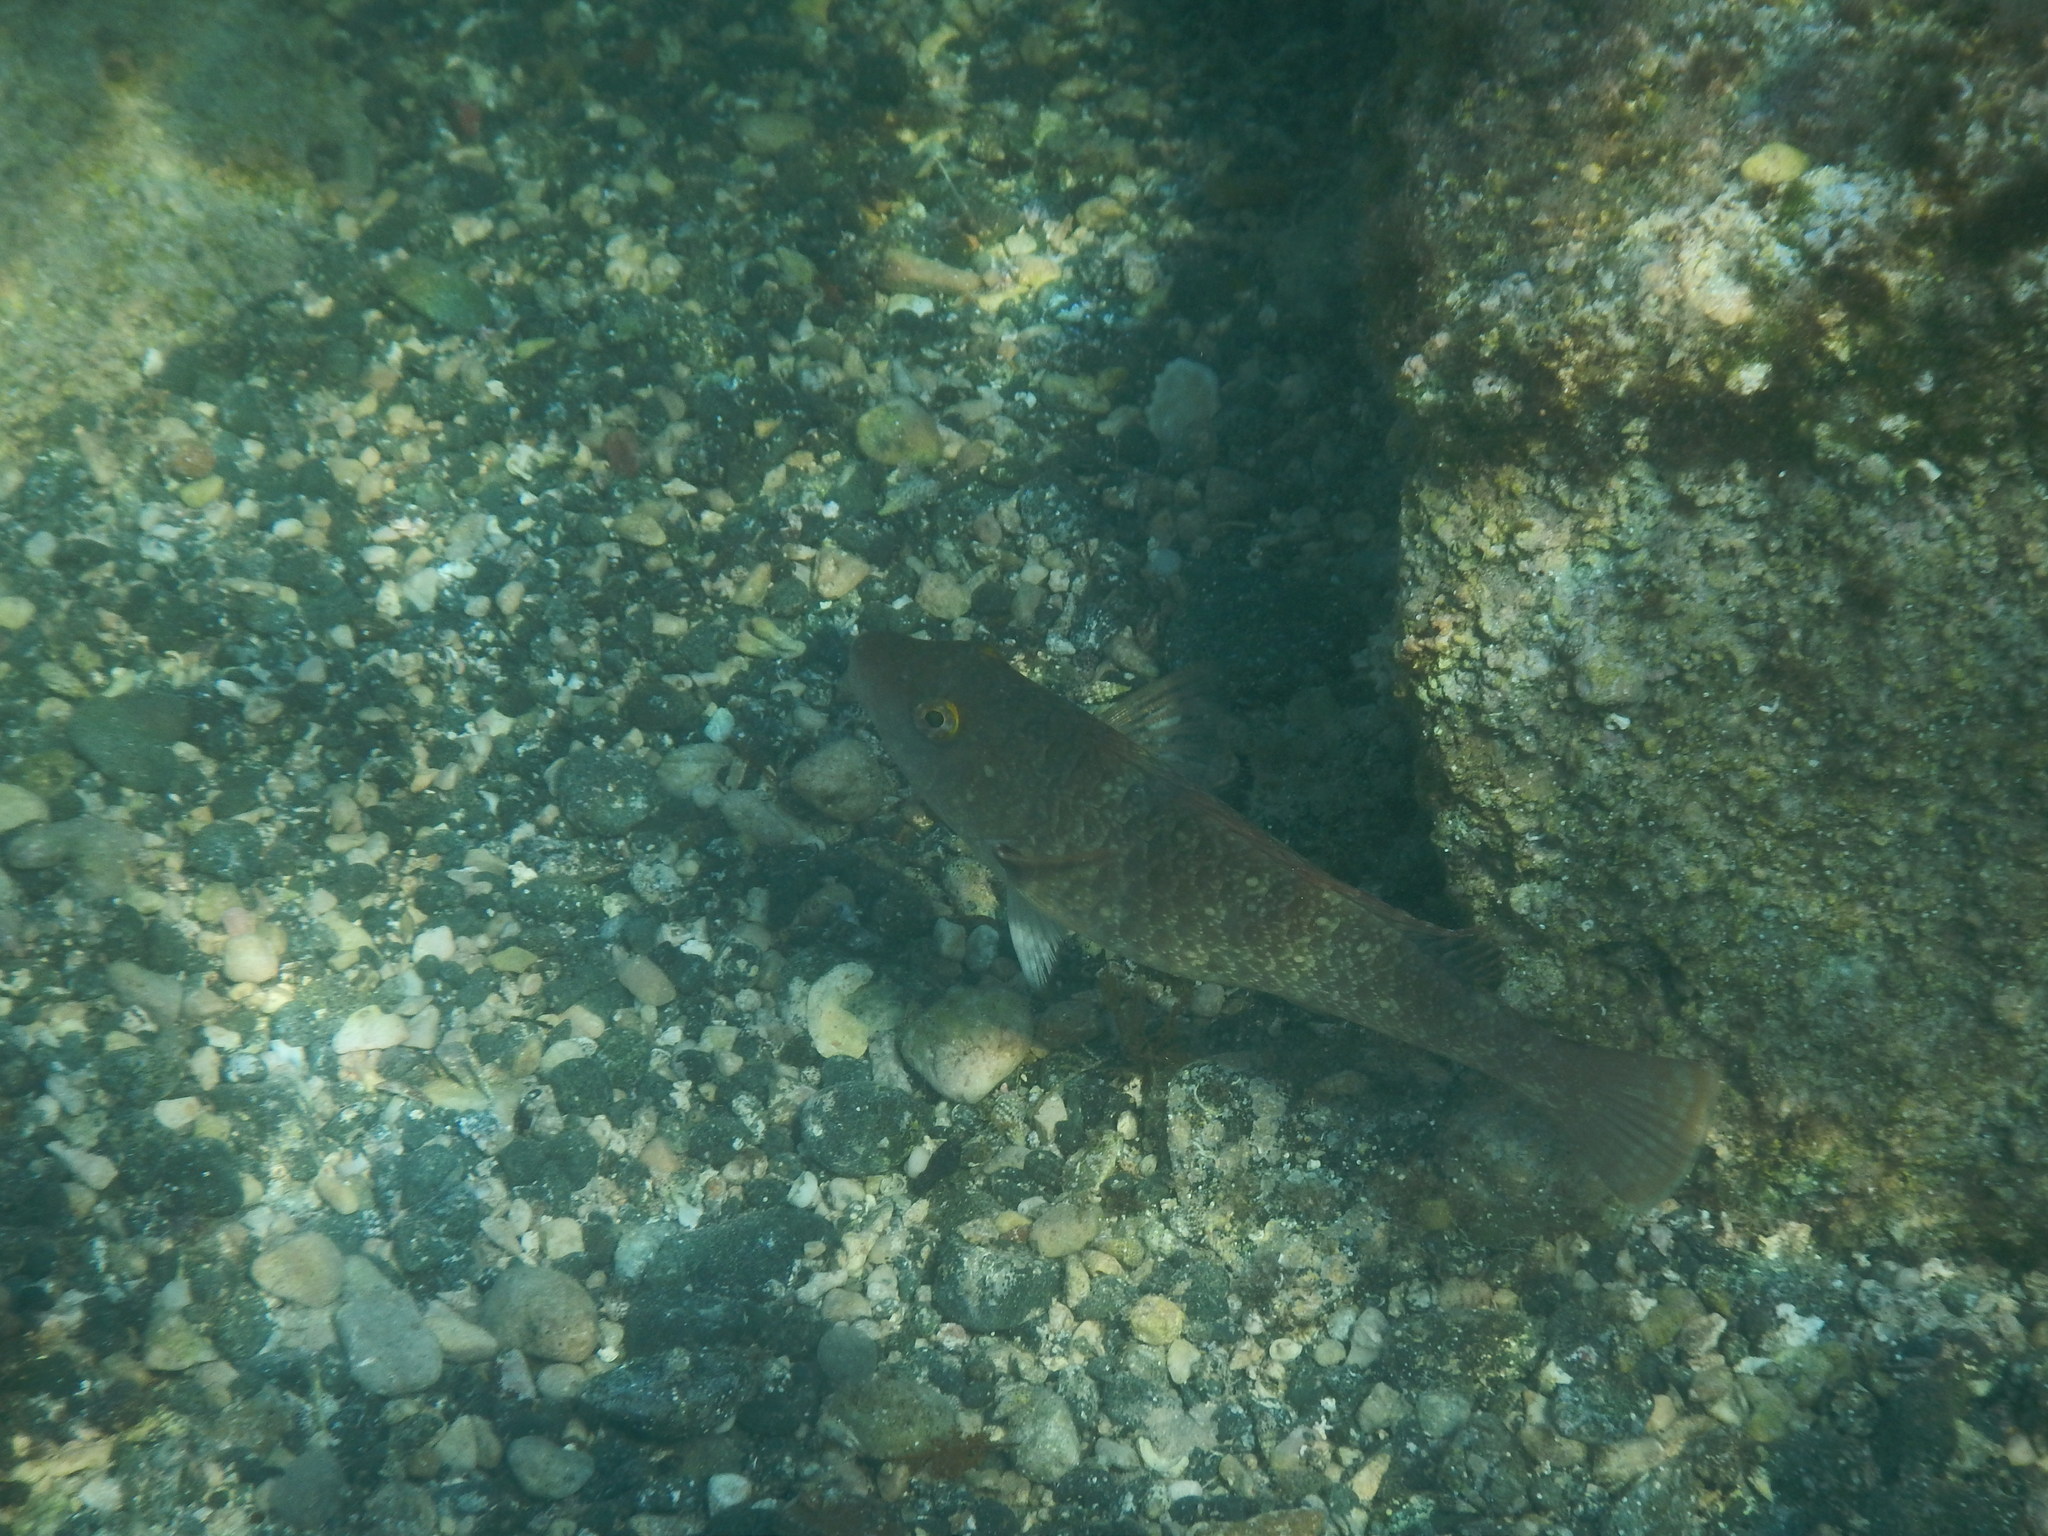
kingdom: Animalia
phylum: Chordata
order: Perciformes
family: Scaridae
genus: Sparisoma
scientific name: Sparisoma cretense
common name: Parrotfish
